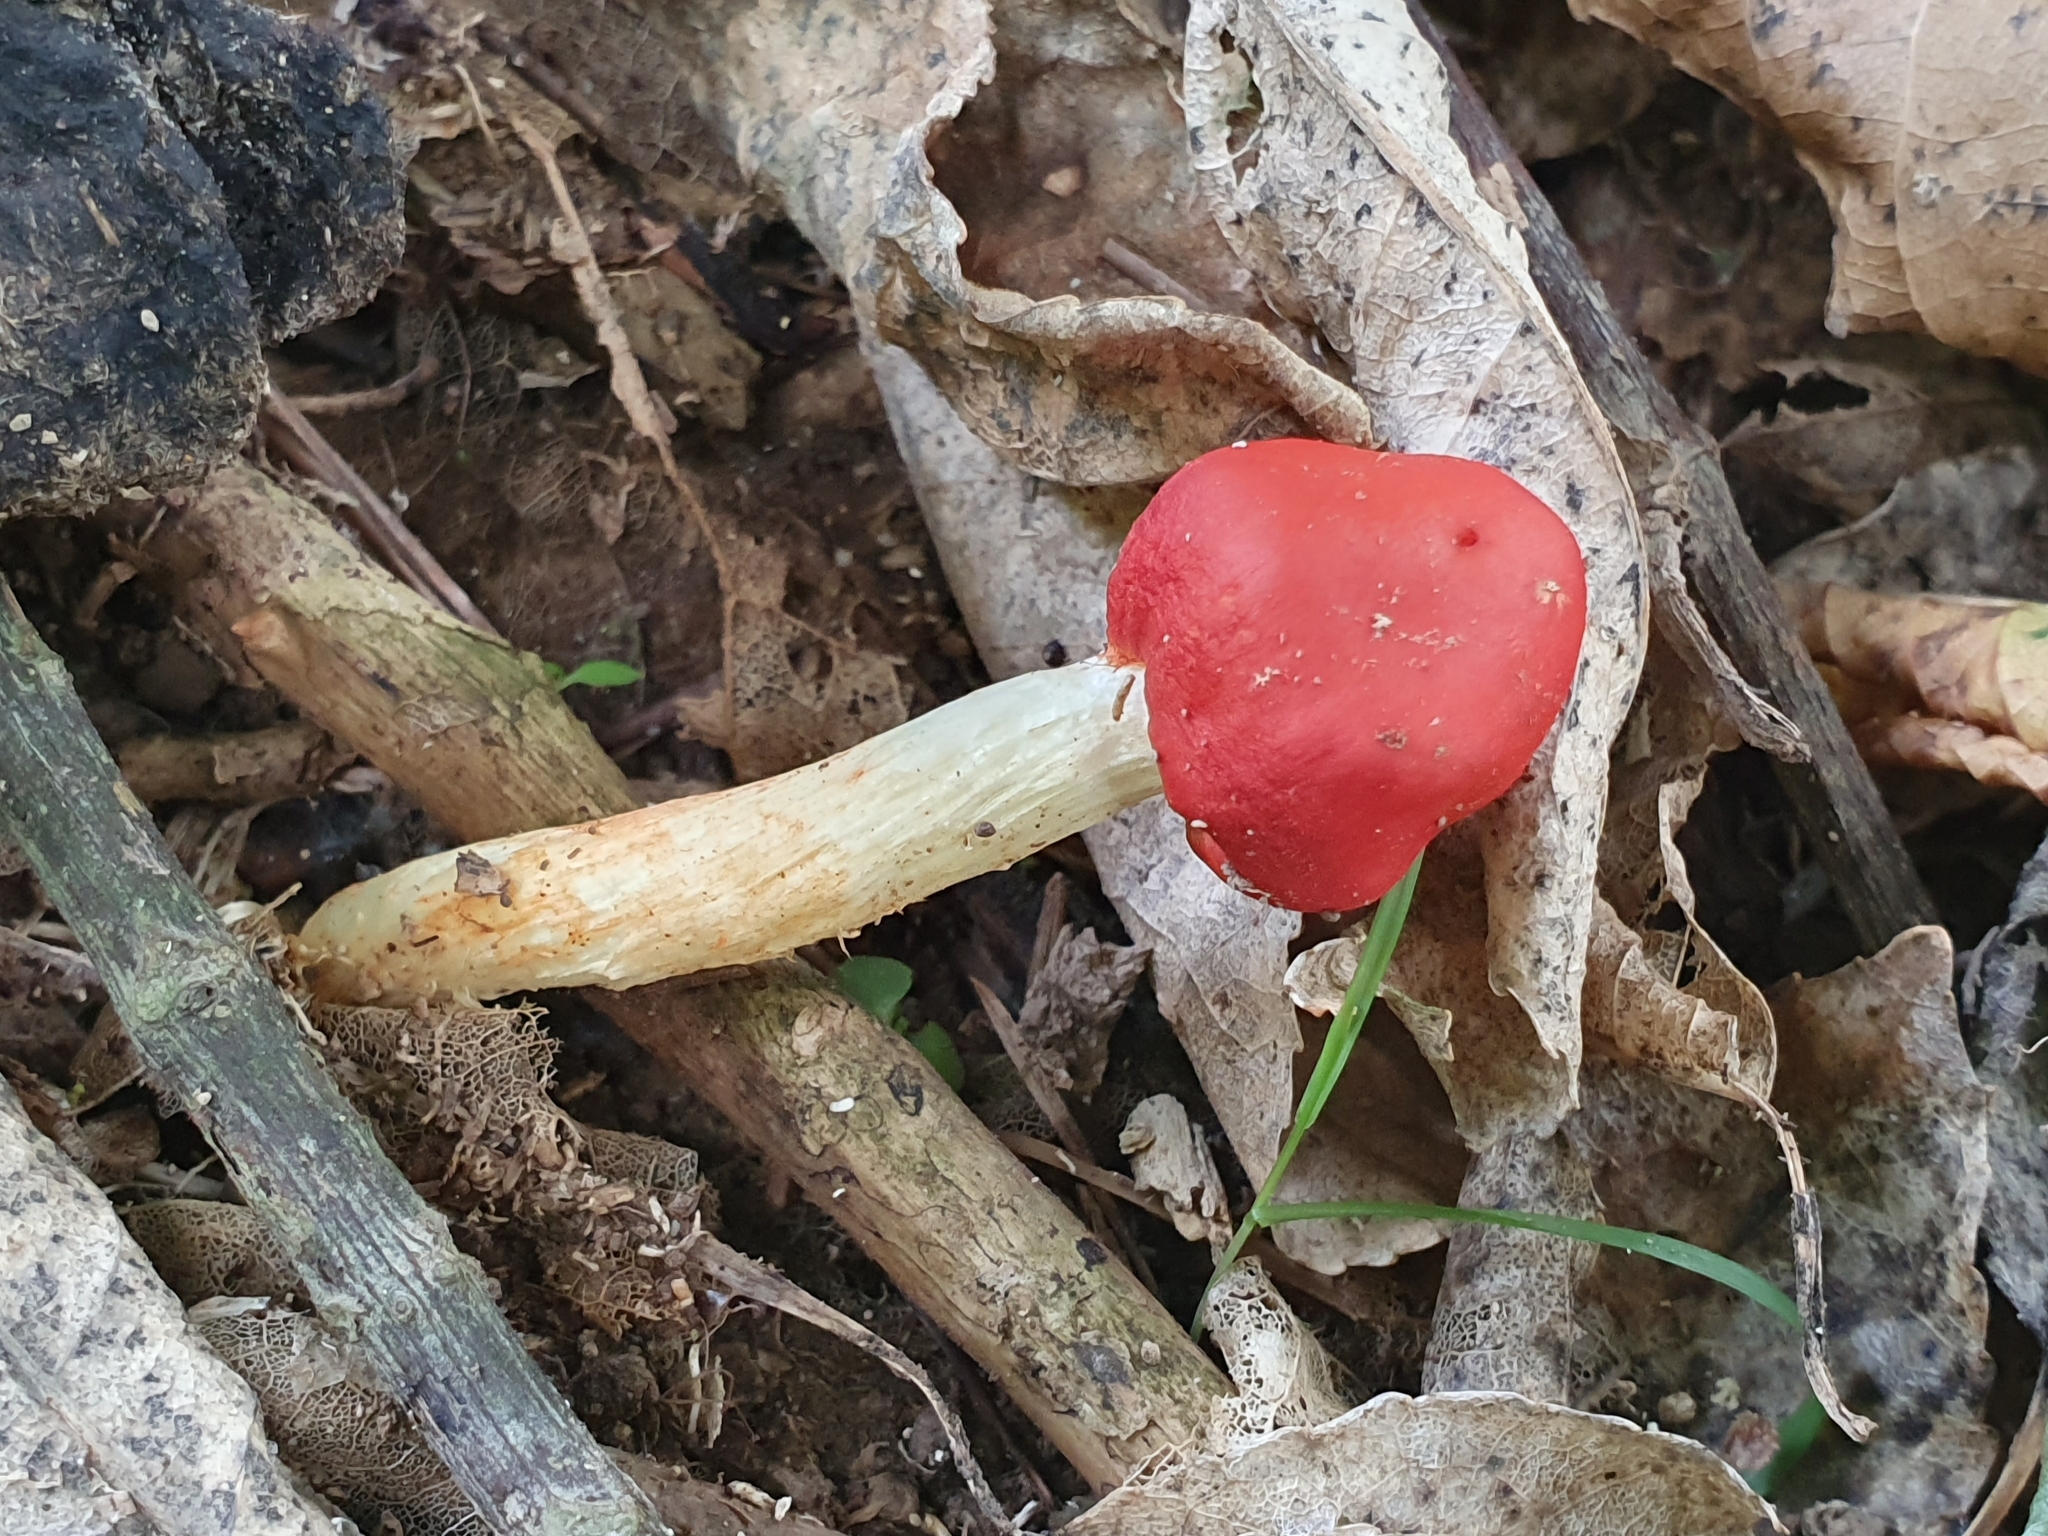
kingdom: Fungi
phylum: Basidiomycota
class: Agaricomycetes
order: Agaricales
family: Strophariaceae
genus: Leratiomyces
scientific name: Leratiomyces erythrocephalus
